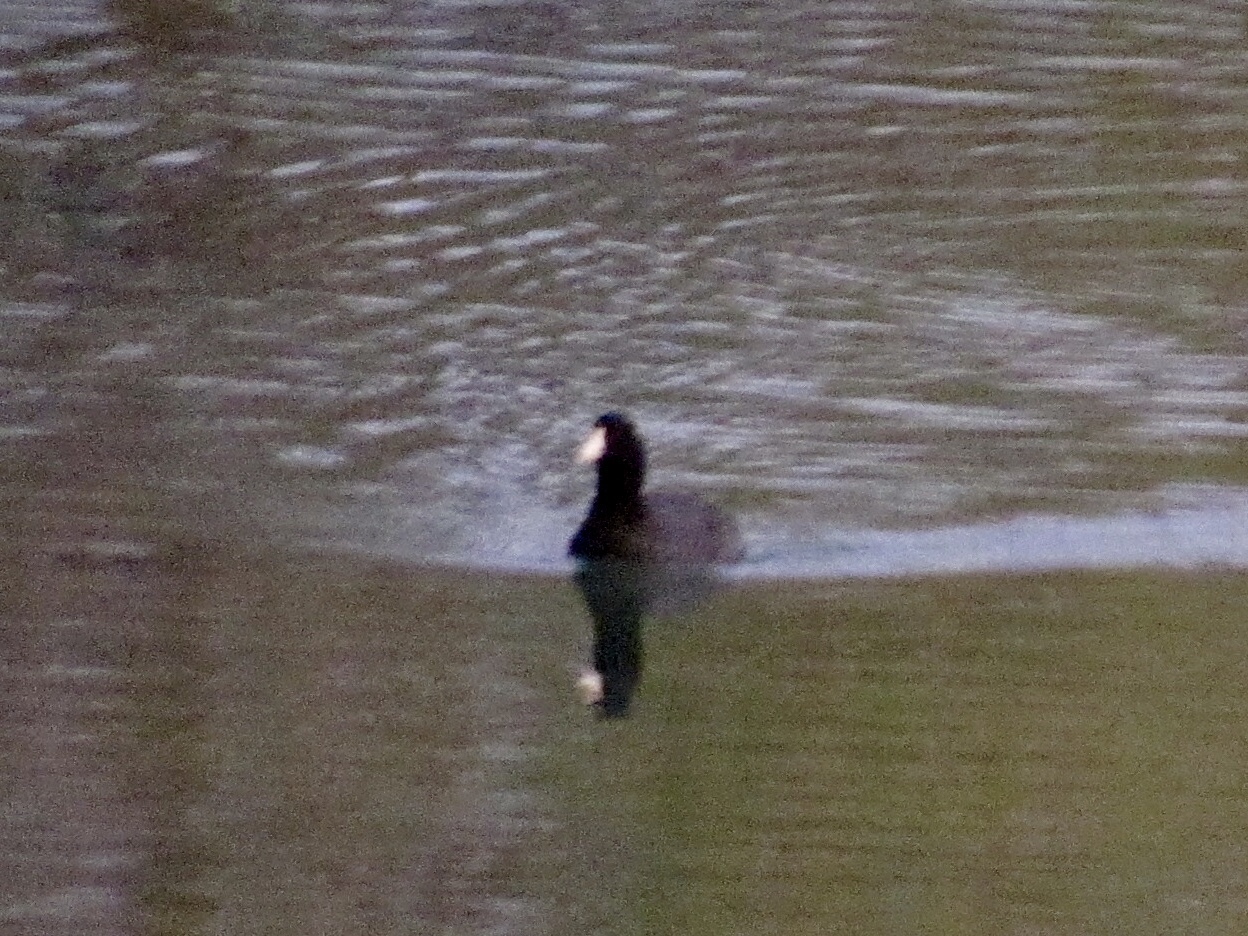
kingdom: Animalia
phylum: Chordata
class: Aves
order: Gruiformes
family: Rallidae
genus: Fulica
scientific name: Fulica americana
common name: American coot
